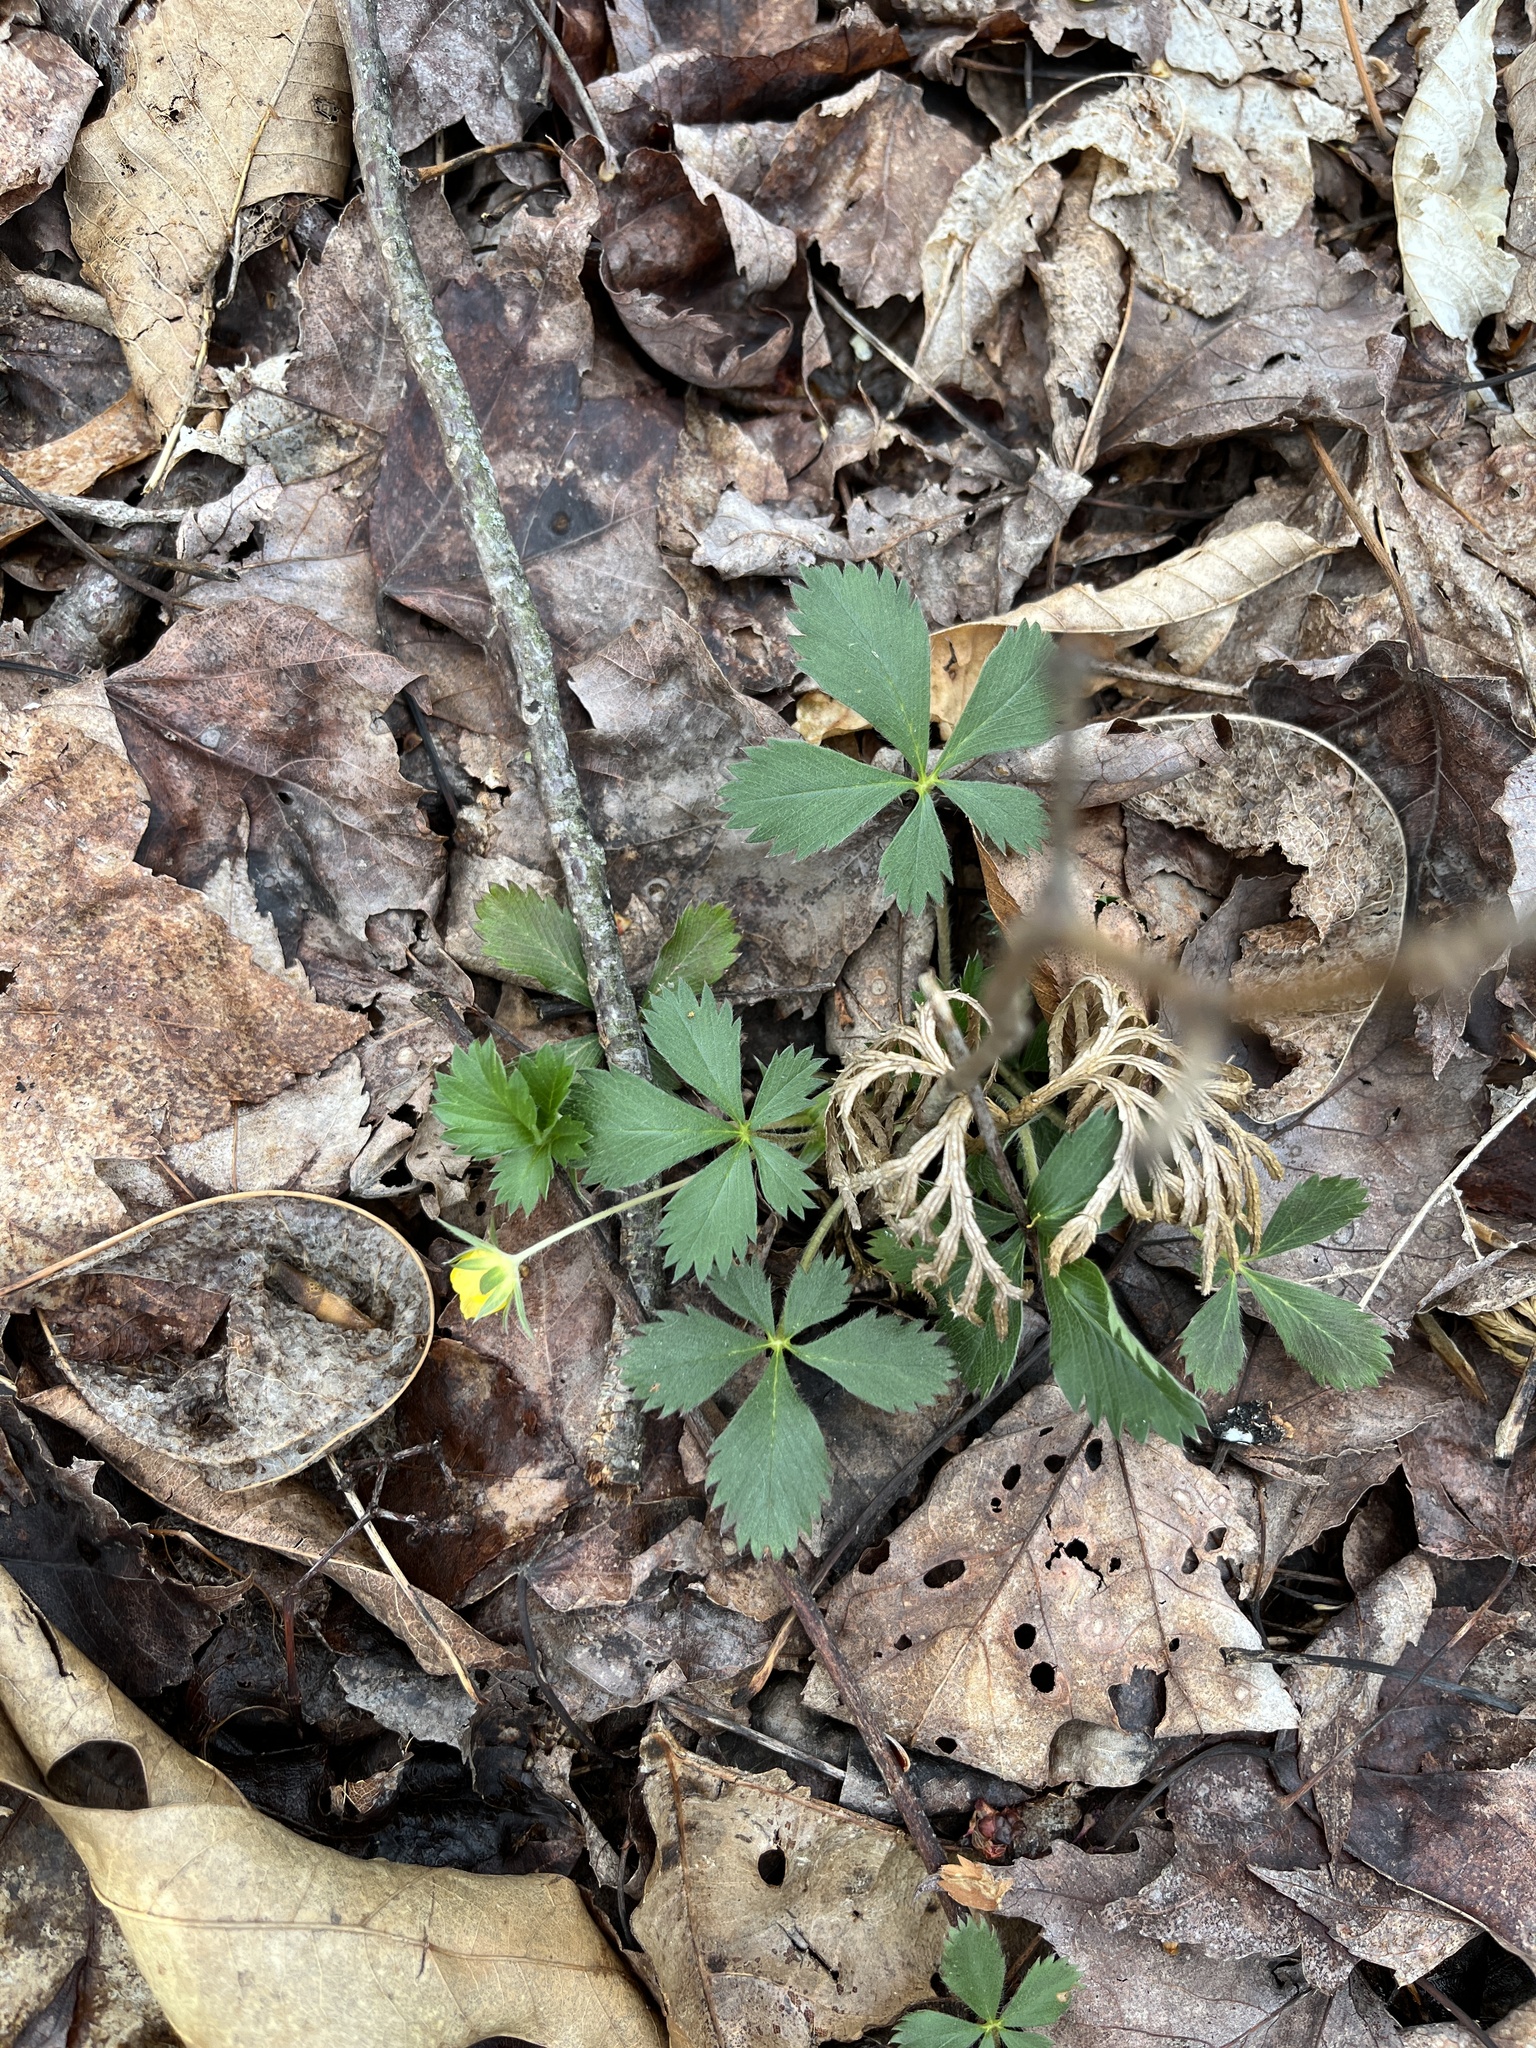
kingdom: Plantae
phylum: Tracheophyta
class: Magnoliopsida
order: Rosales
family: Rosaceae
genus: Potentilla
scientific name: Potentilla canadensis
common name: Canada cinquefoil
